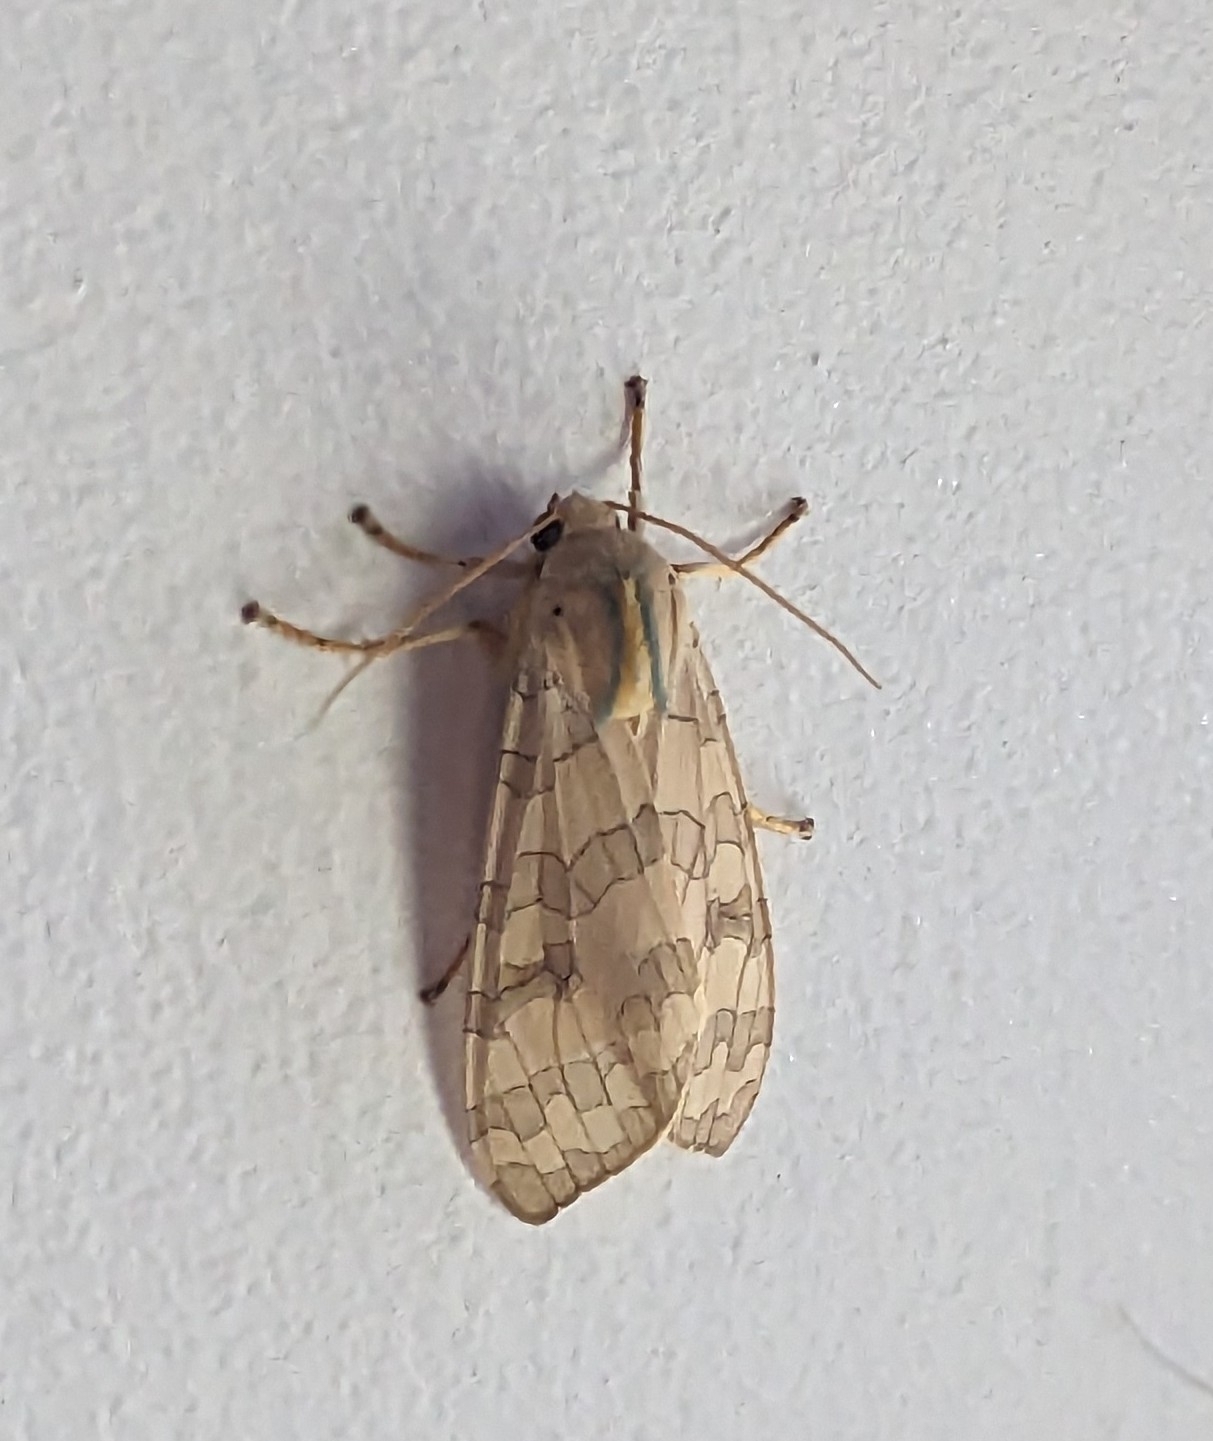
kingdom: Animalia
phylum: Arthropoda
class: Insecta
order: Lepidoptera
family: Erebidae
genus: Halysidota
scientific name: Halysidota
